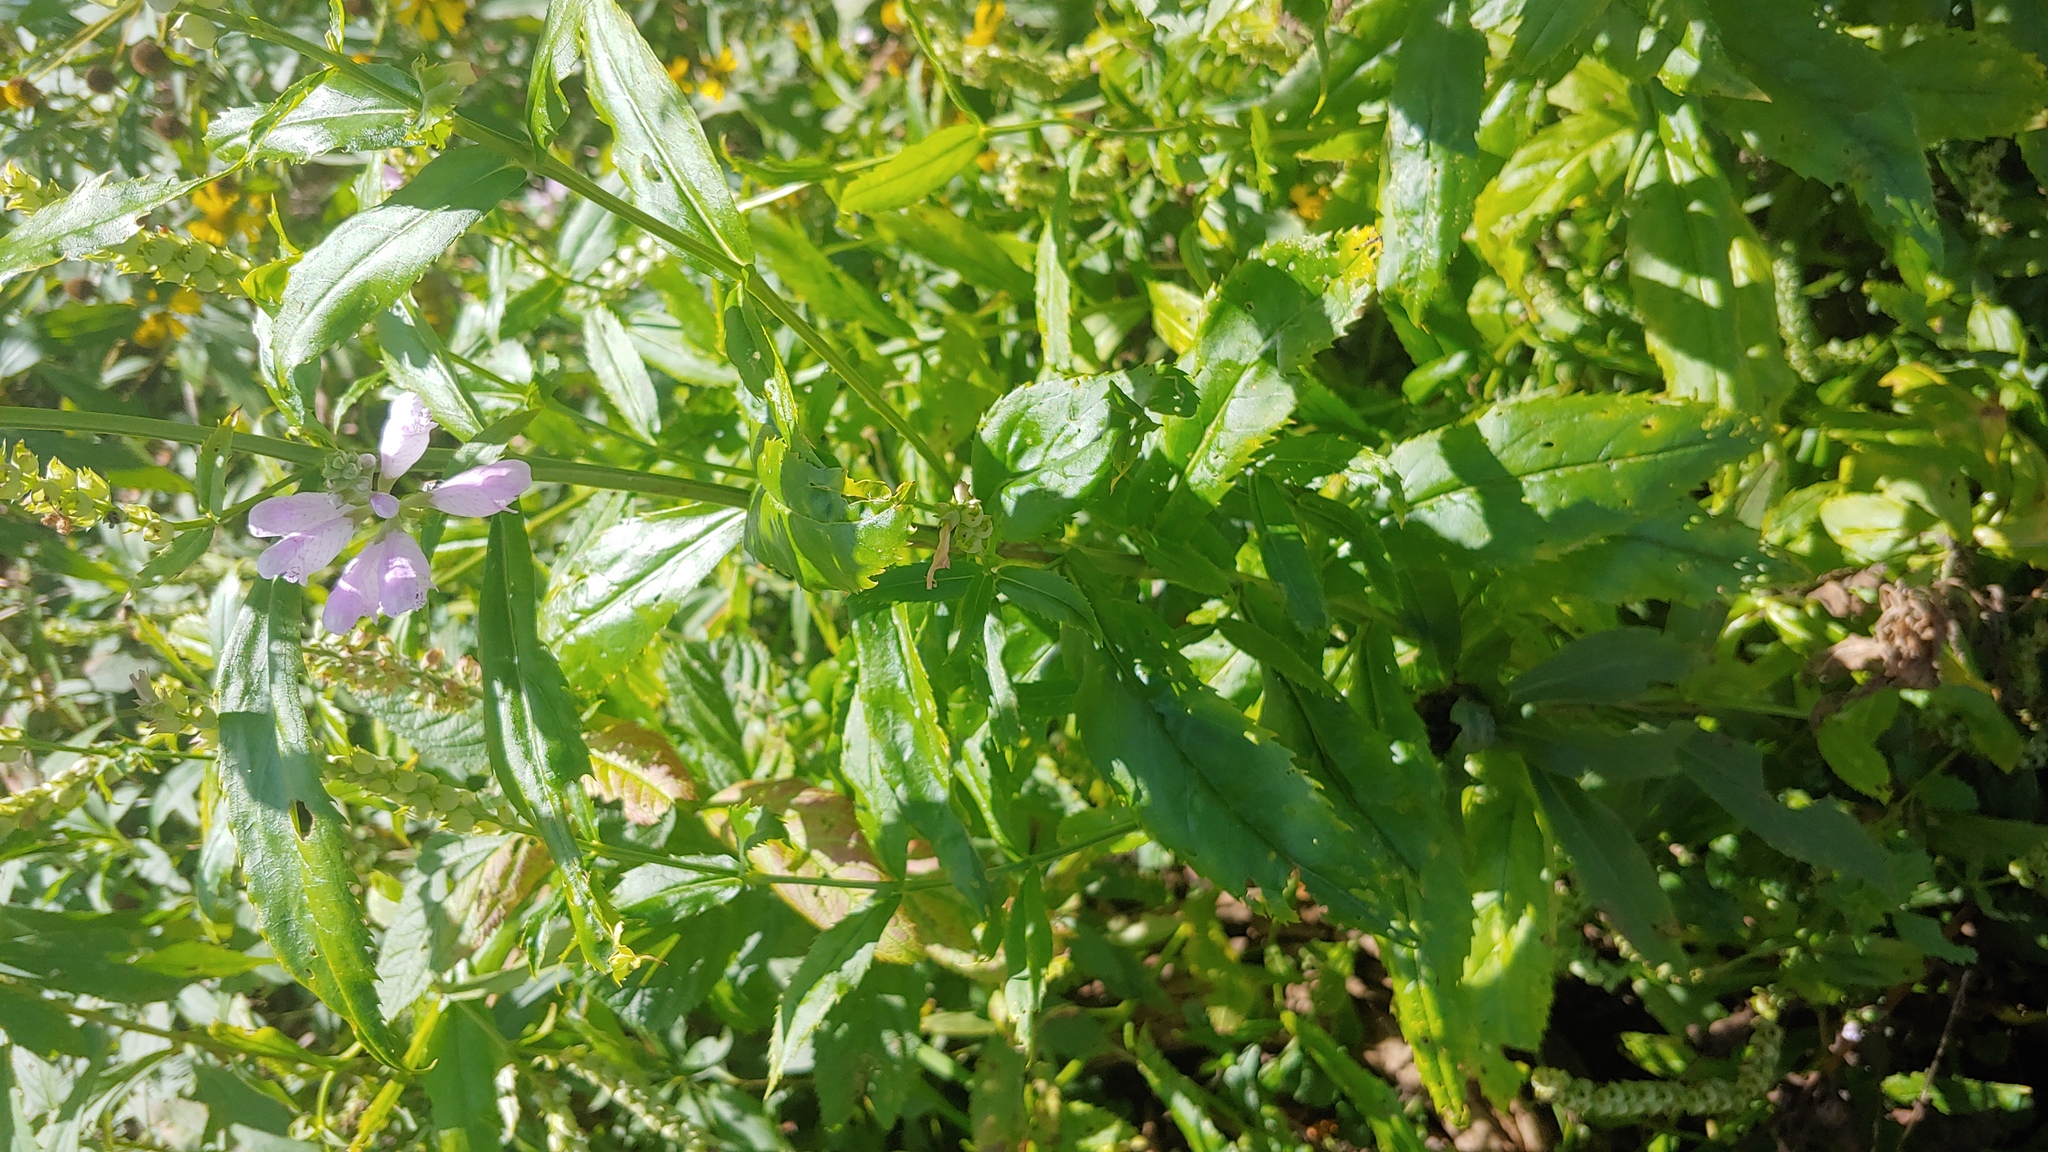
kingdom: Plantae
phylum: Tracheophyta
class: Magnoliopsida
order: Lamiales
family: Lamiaceae
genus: Physostegia
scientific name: Physostegia virginiana
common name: Obedient-plant
